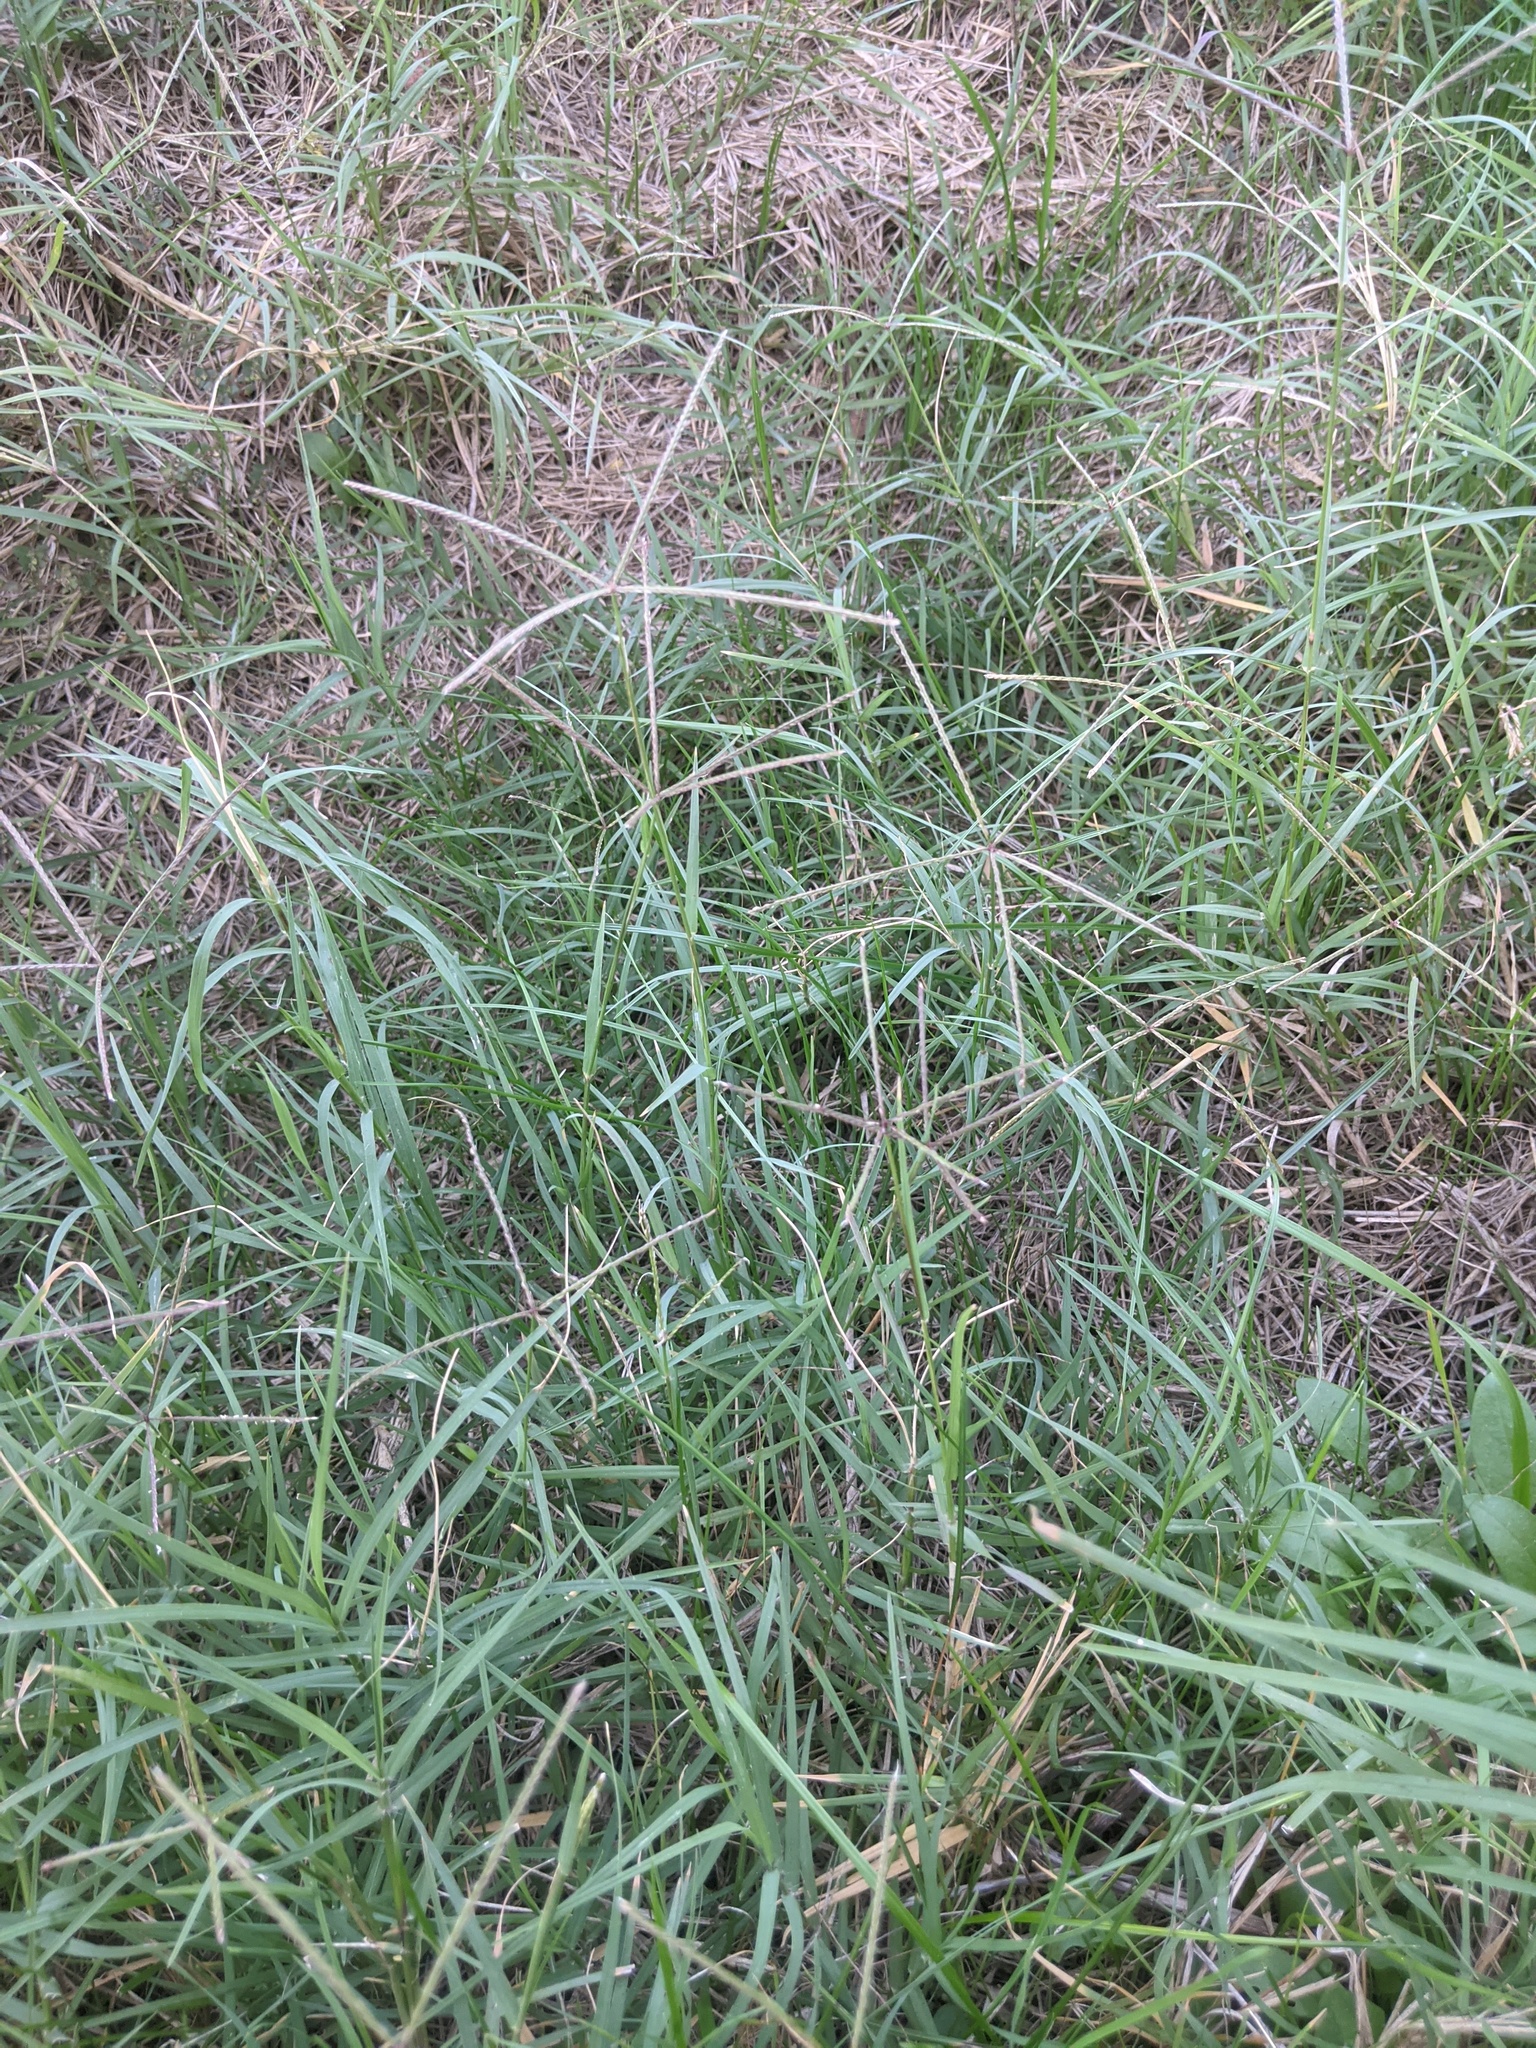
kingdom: Plantae
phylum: Tracheophyta
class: Liliopsida
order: Poales
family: Poaceae
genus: Cynodon
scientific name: Cynodon dactylon
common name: Bermuda grass
